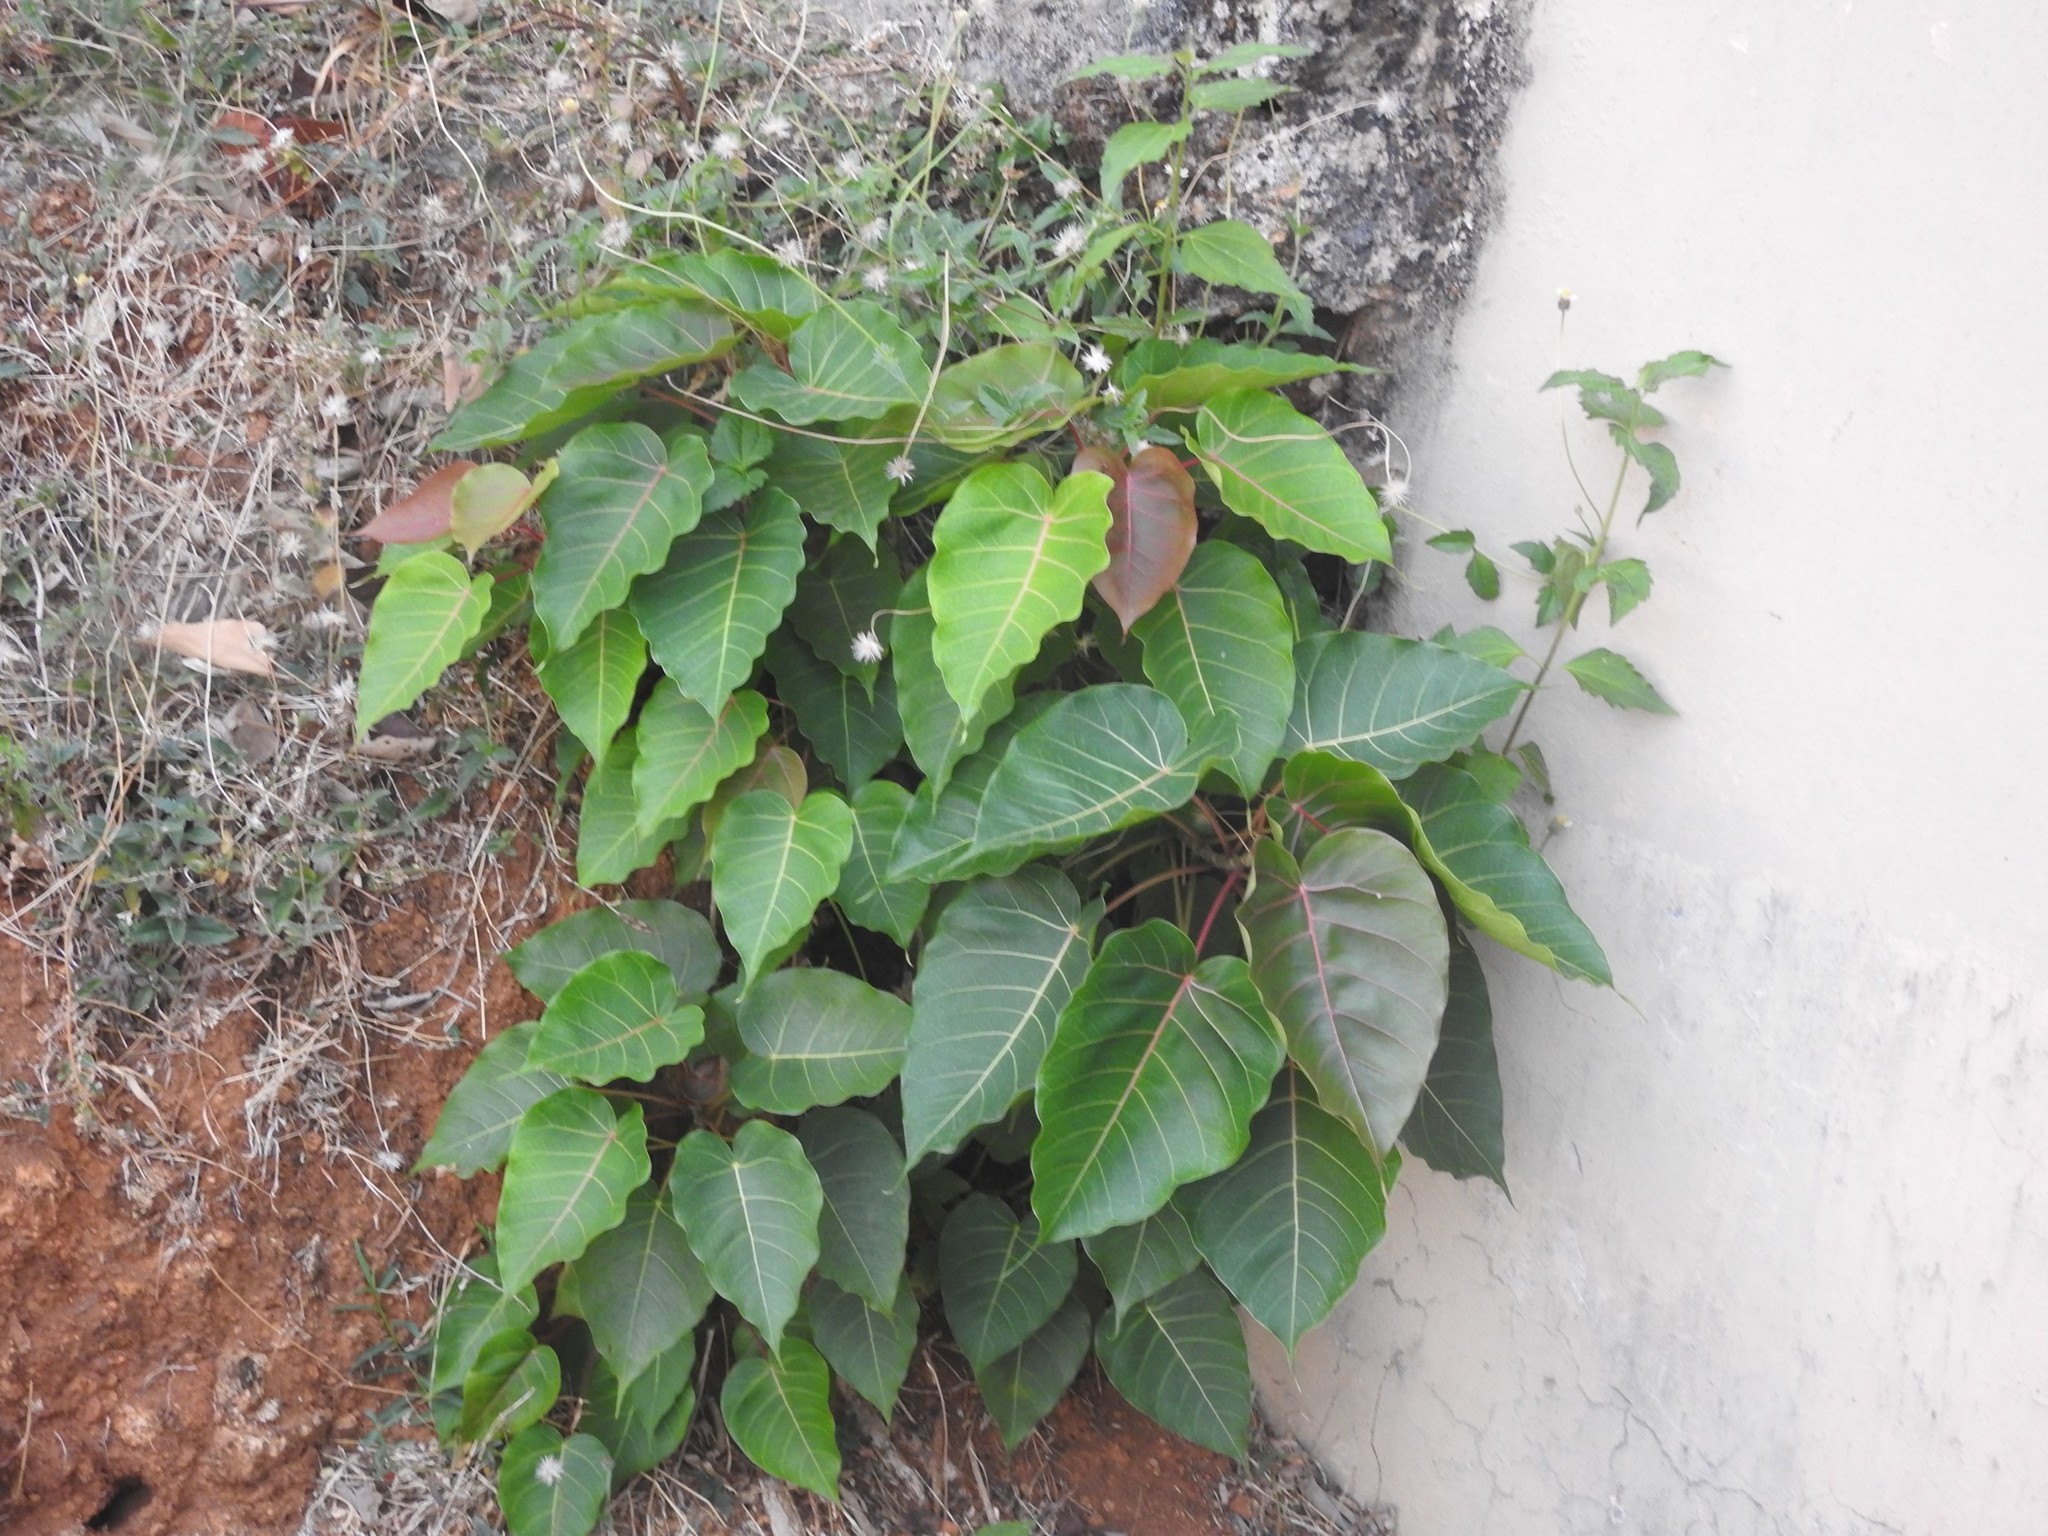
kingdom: Plantae
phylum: Tracheophyta
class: Magnoliopsida
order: Rosales
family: Moraceae
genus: Ficus
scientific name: Ficus arnottiana
